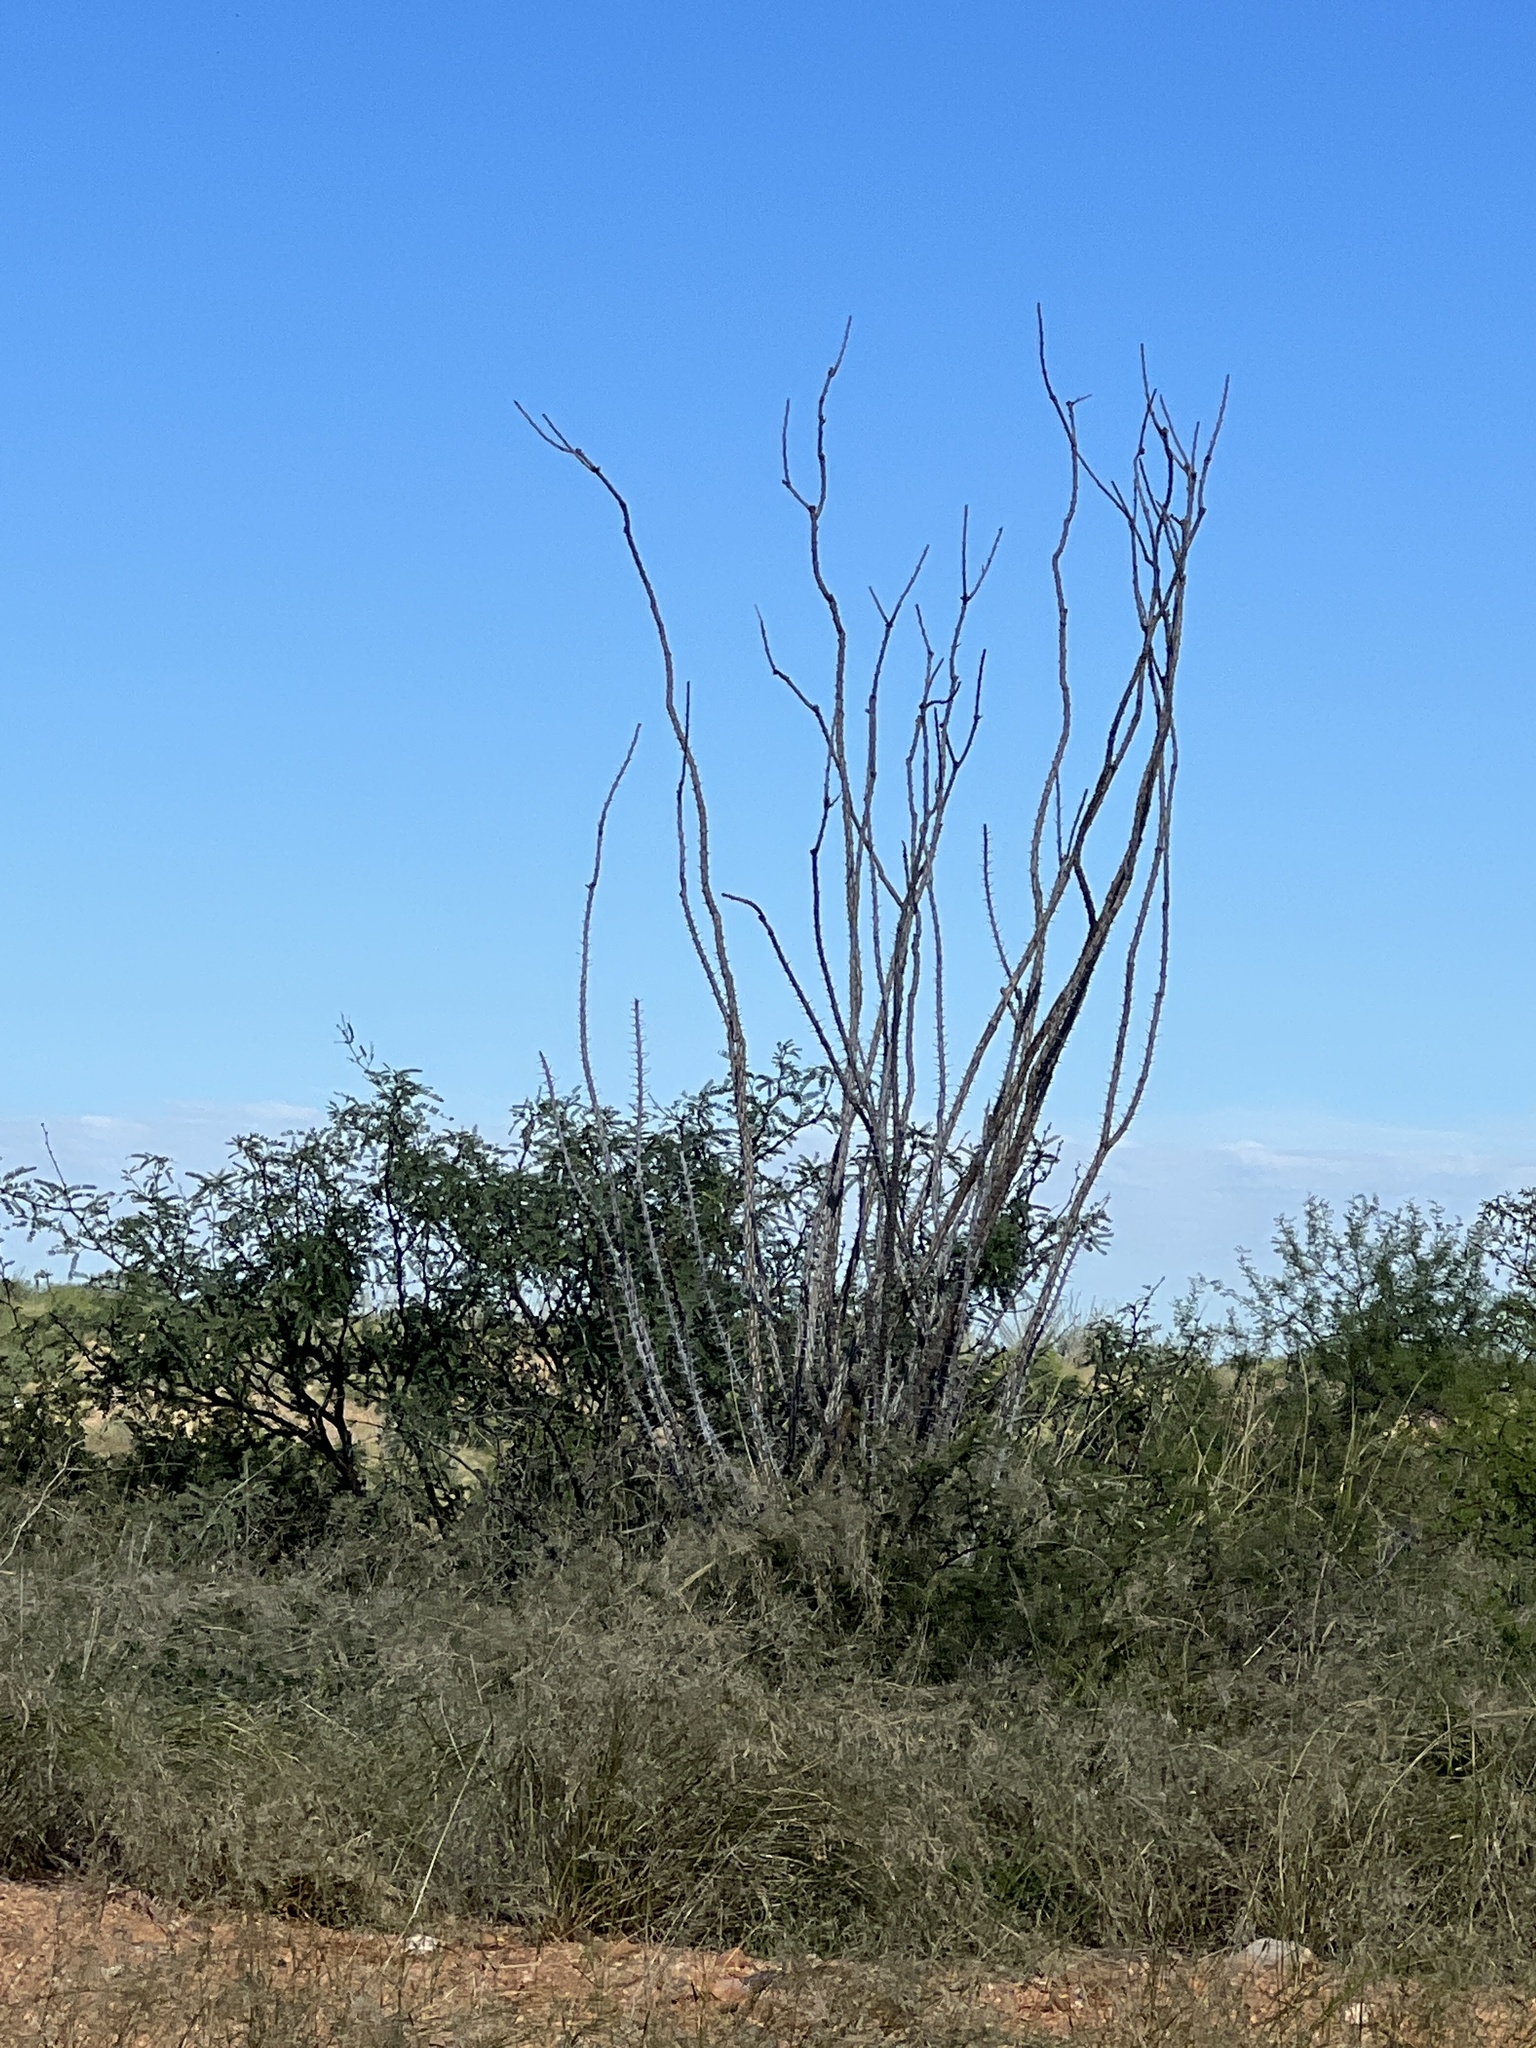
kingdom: Plantae
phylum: Tracheophyta
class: Magnoliopsida
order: Ericales
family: Fouquieriaceae
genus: Fouquieria
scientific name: Fouquieria splendens
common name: Vine-cactus
